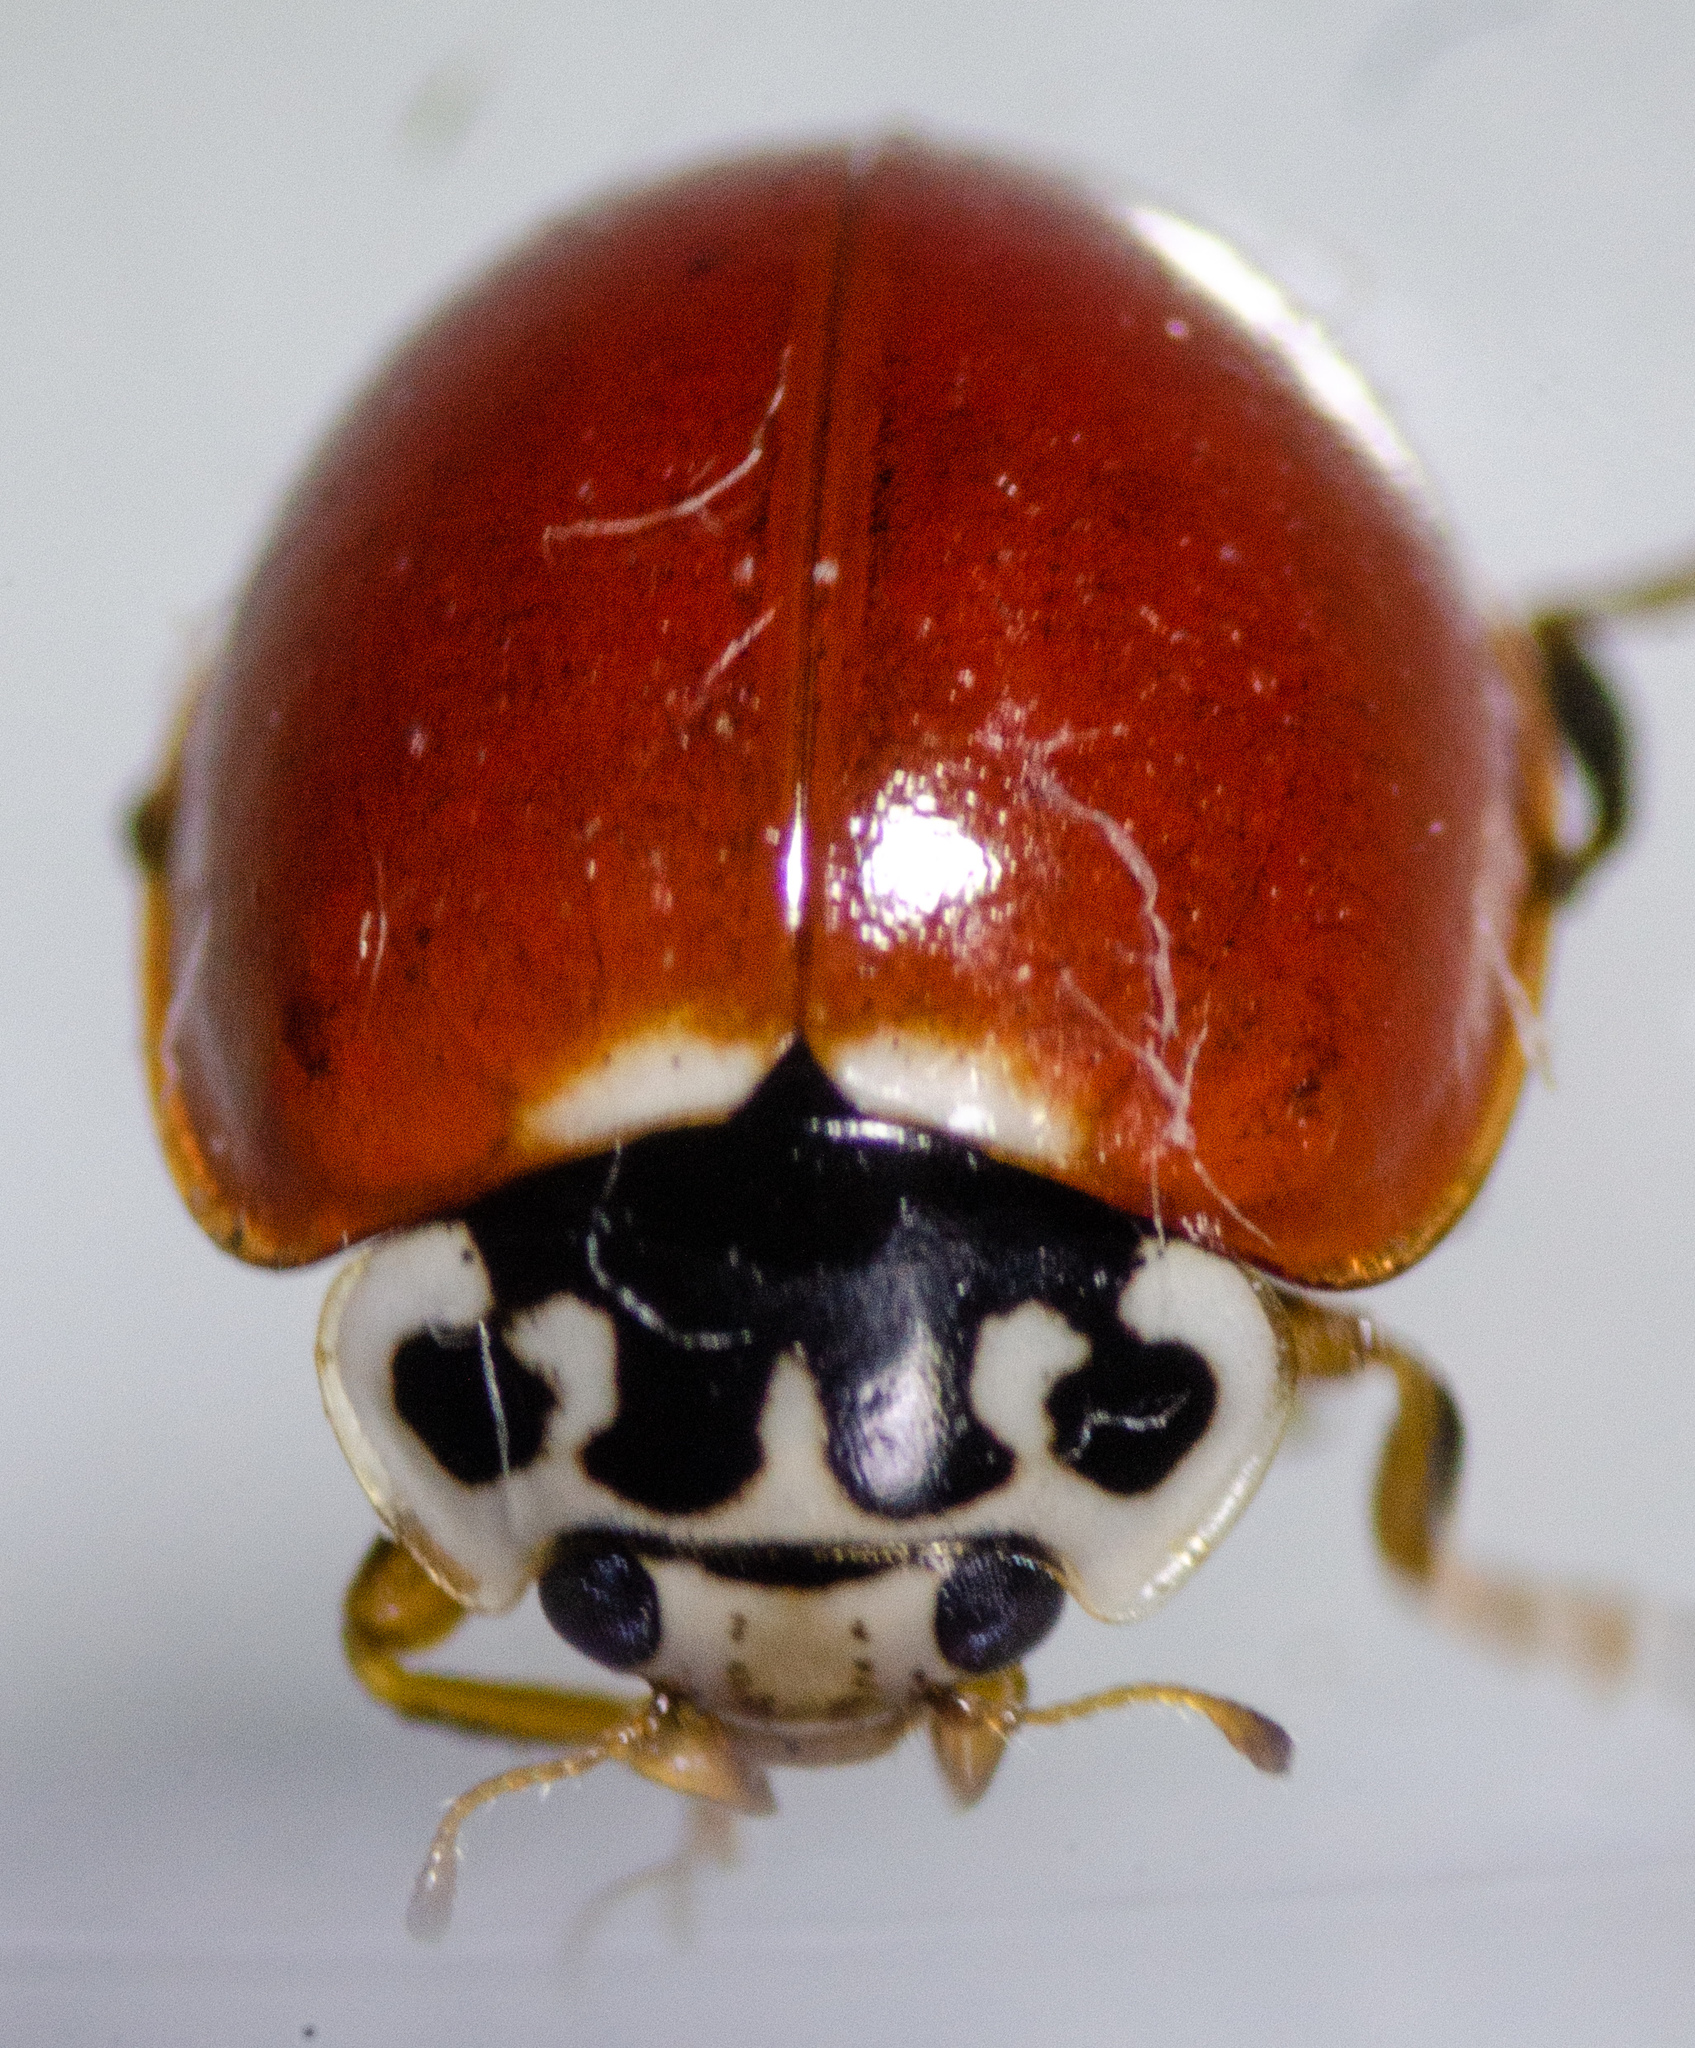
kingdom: Animalia
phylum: Arthropoda
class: Insecta
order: Coleoptera
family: Coccinellidae
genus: Cycloneda
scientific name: Cycloneda polita
